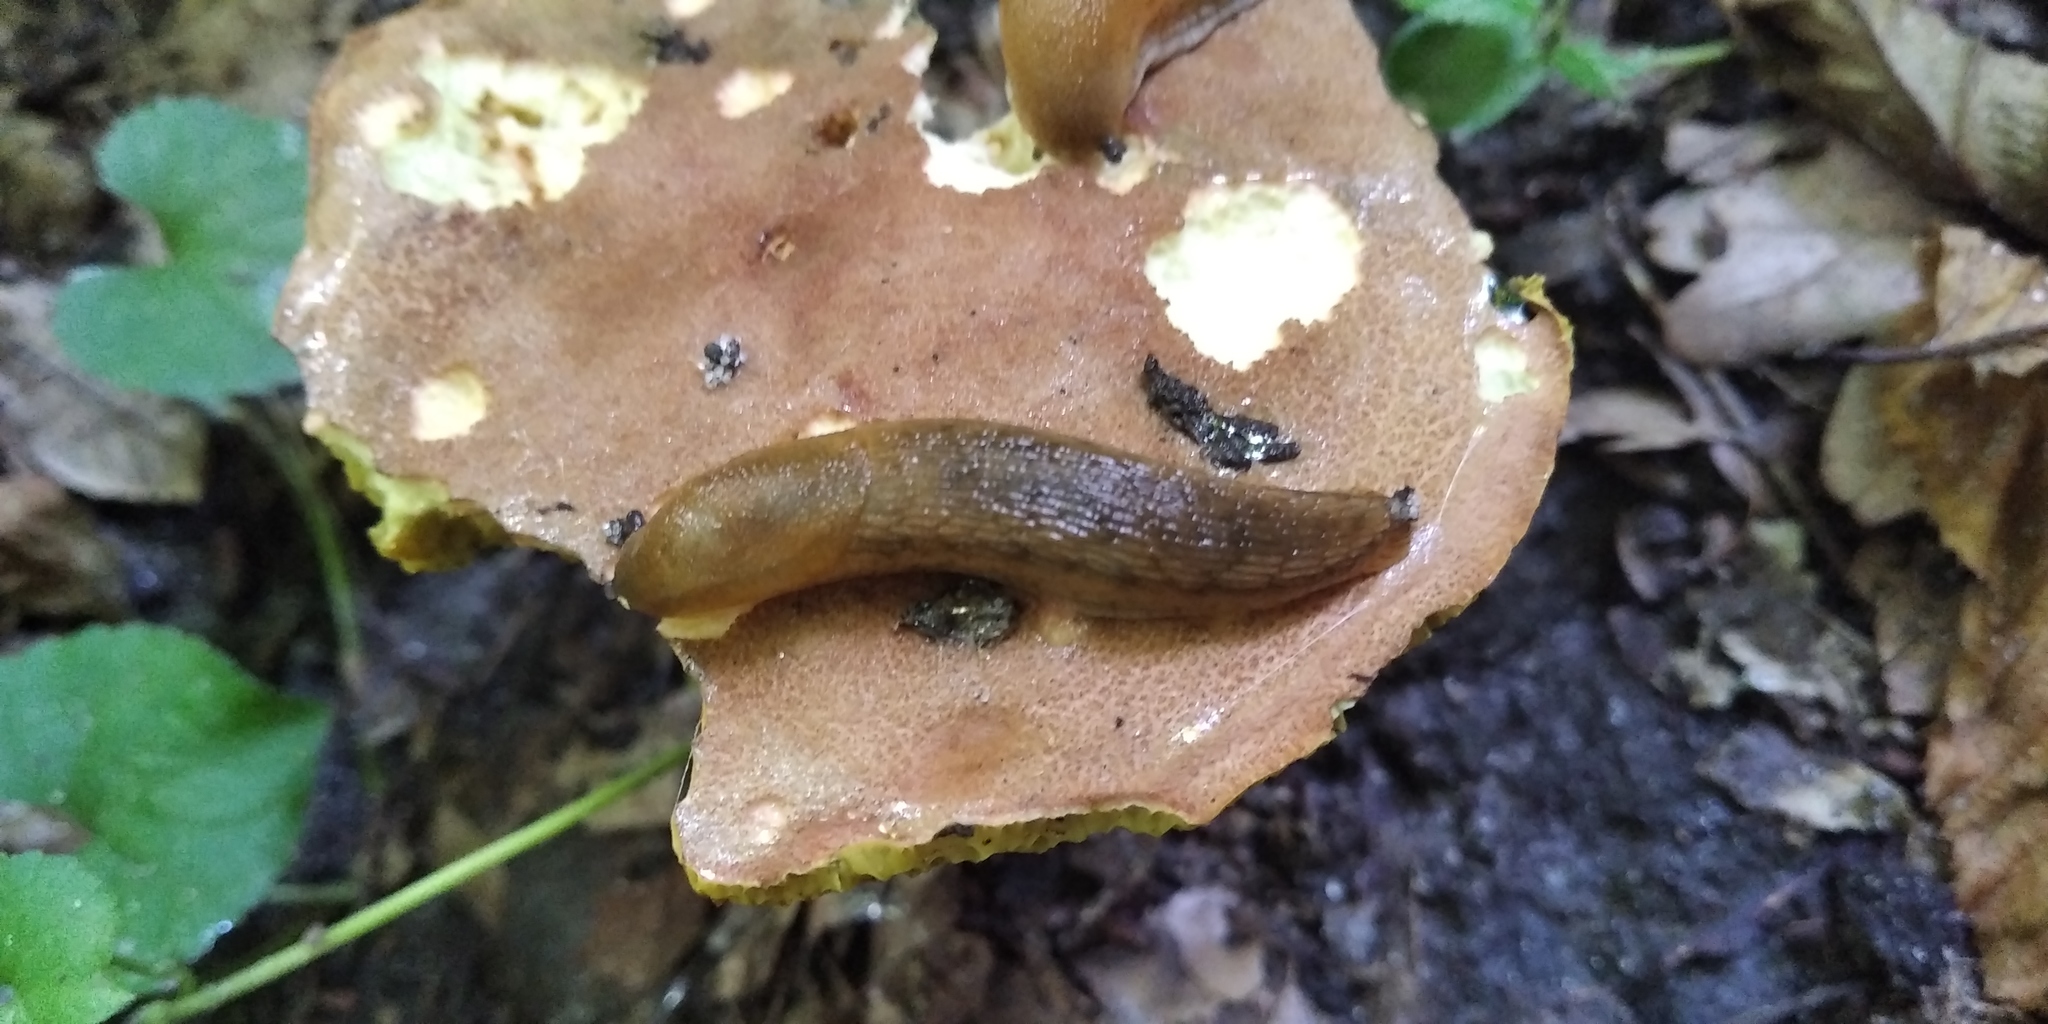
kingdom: Animalia
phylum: Mollusca
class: Gastropoda
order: Stylommatophora
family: Arionidae
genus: Arion
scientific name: Arion fuscus
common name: Northern dusky slug
